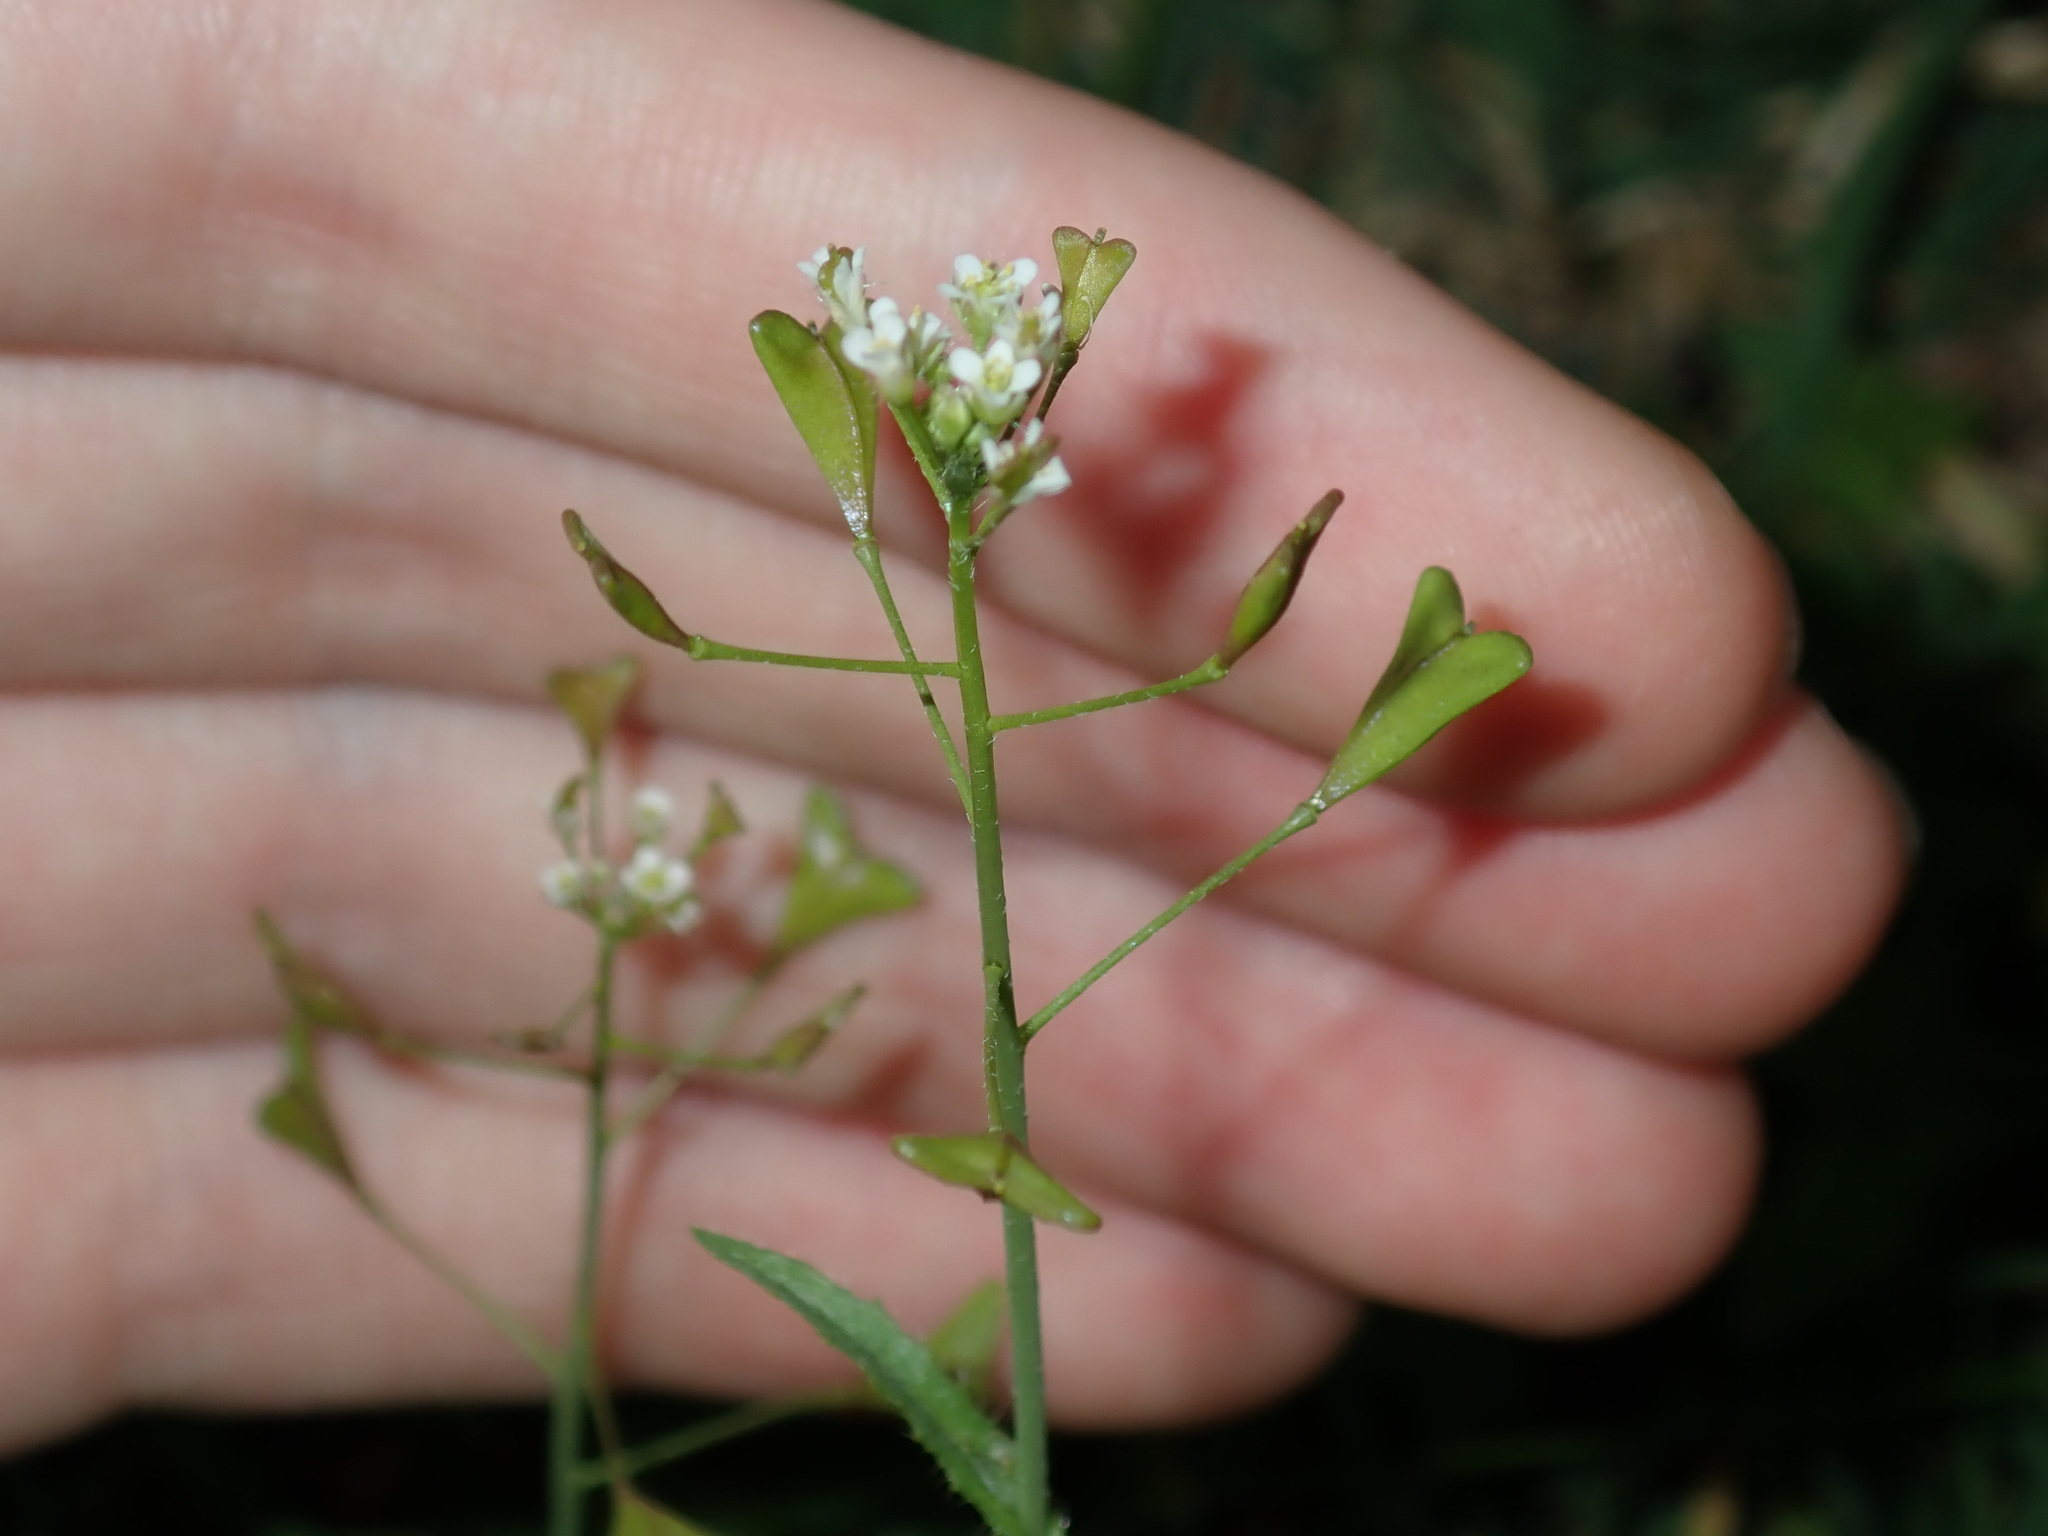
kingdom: Plantae
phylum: Tracheophyta
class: Magnoliopsida
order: Brassicales
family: Brassicaceae
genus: Capsella
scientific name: Capsella bursa-pastoris
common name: Shepherd's purse
